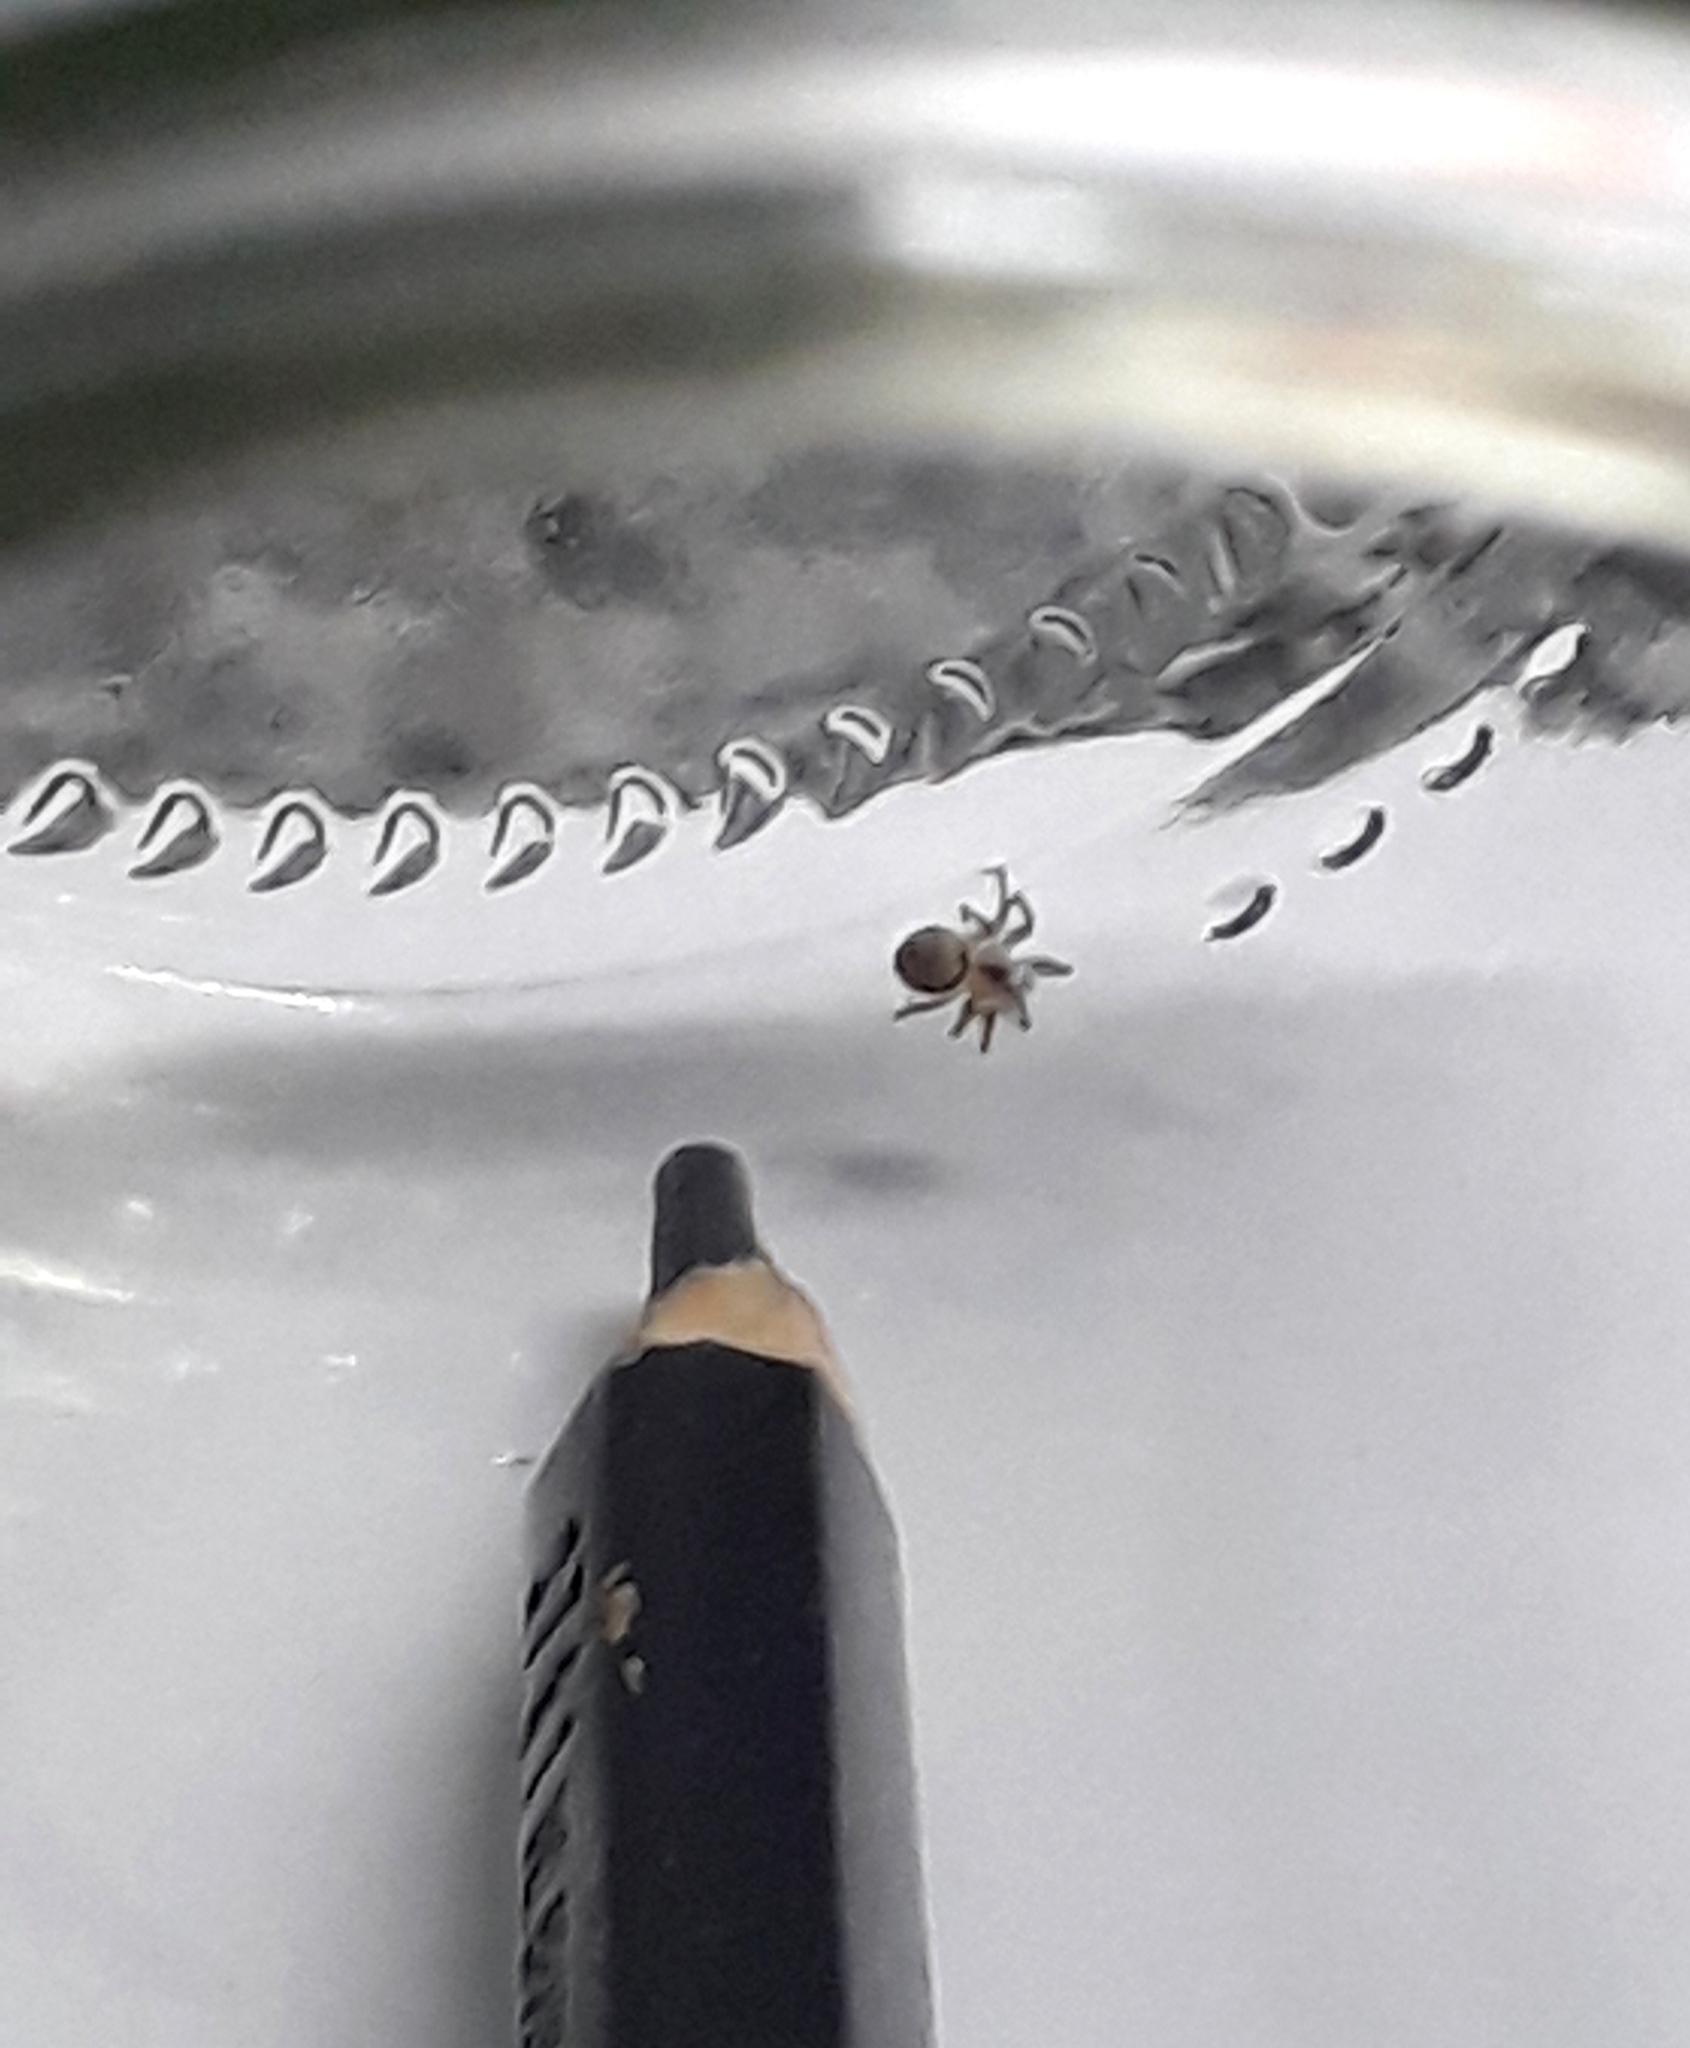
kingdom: Animalia
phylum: Arthropoda
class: Arachnida
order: Araneae
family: Oecobiidae
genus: Oecobius
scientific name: Oecobius navus
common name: Flatmesh weaver
